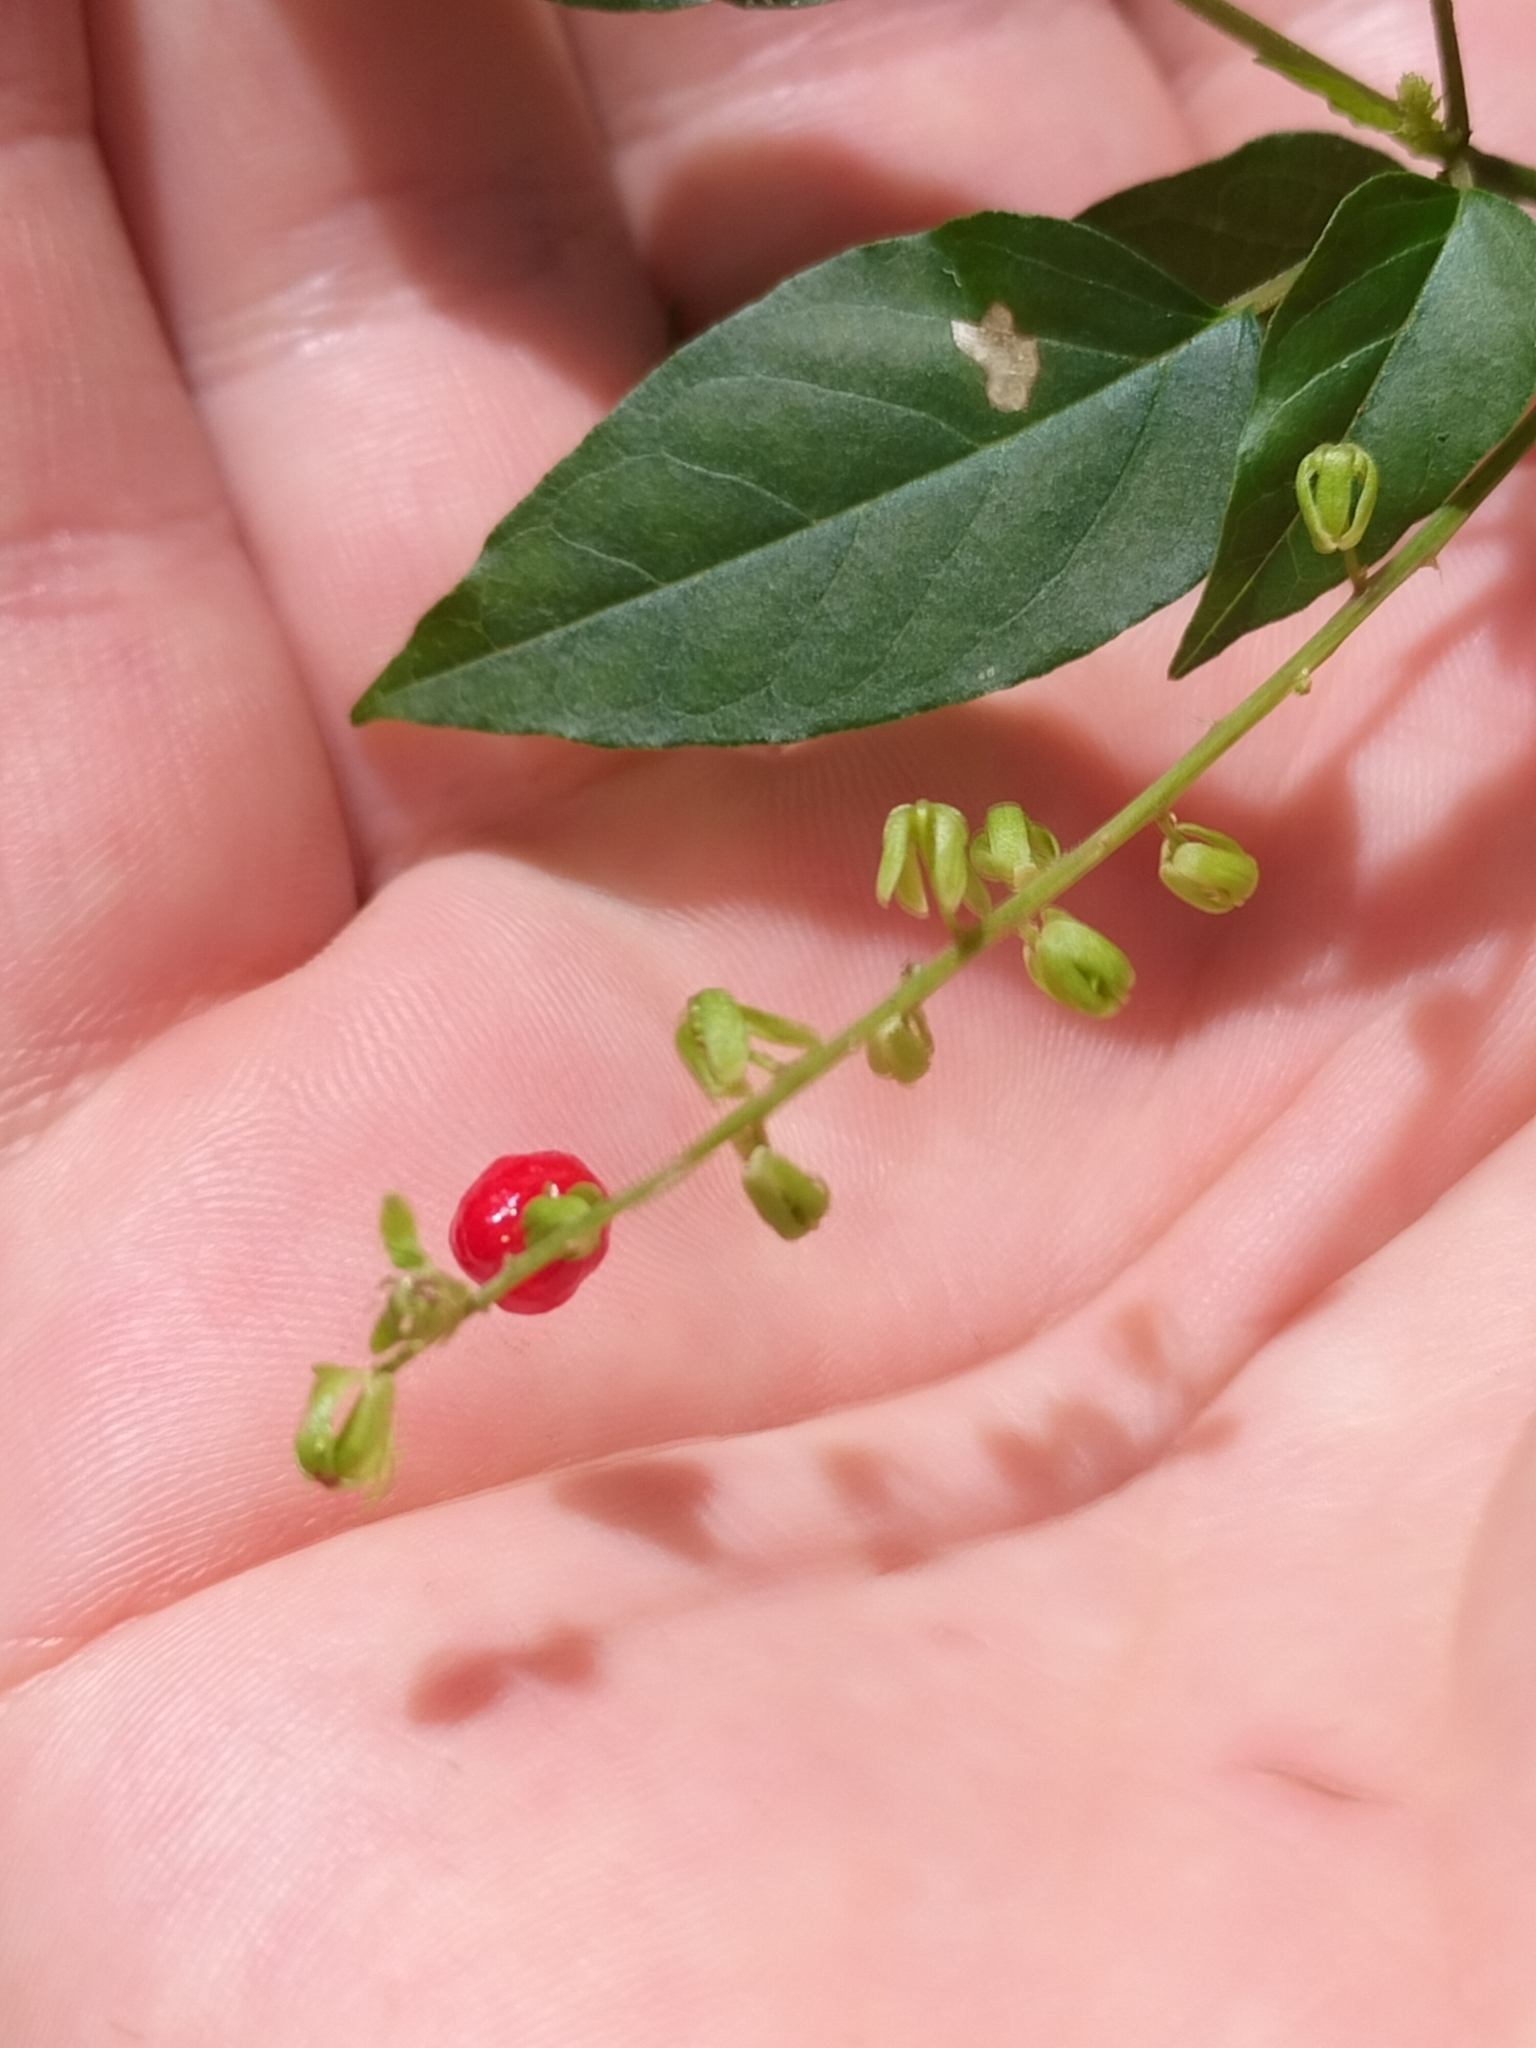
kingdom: Plantae
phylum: Tracheophyta
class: Magnoliopsida
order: Caryophyllales
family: Phytolaccaceae
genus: Rivina
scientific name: Rivina humilis
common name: Rougeplant
